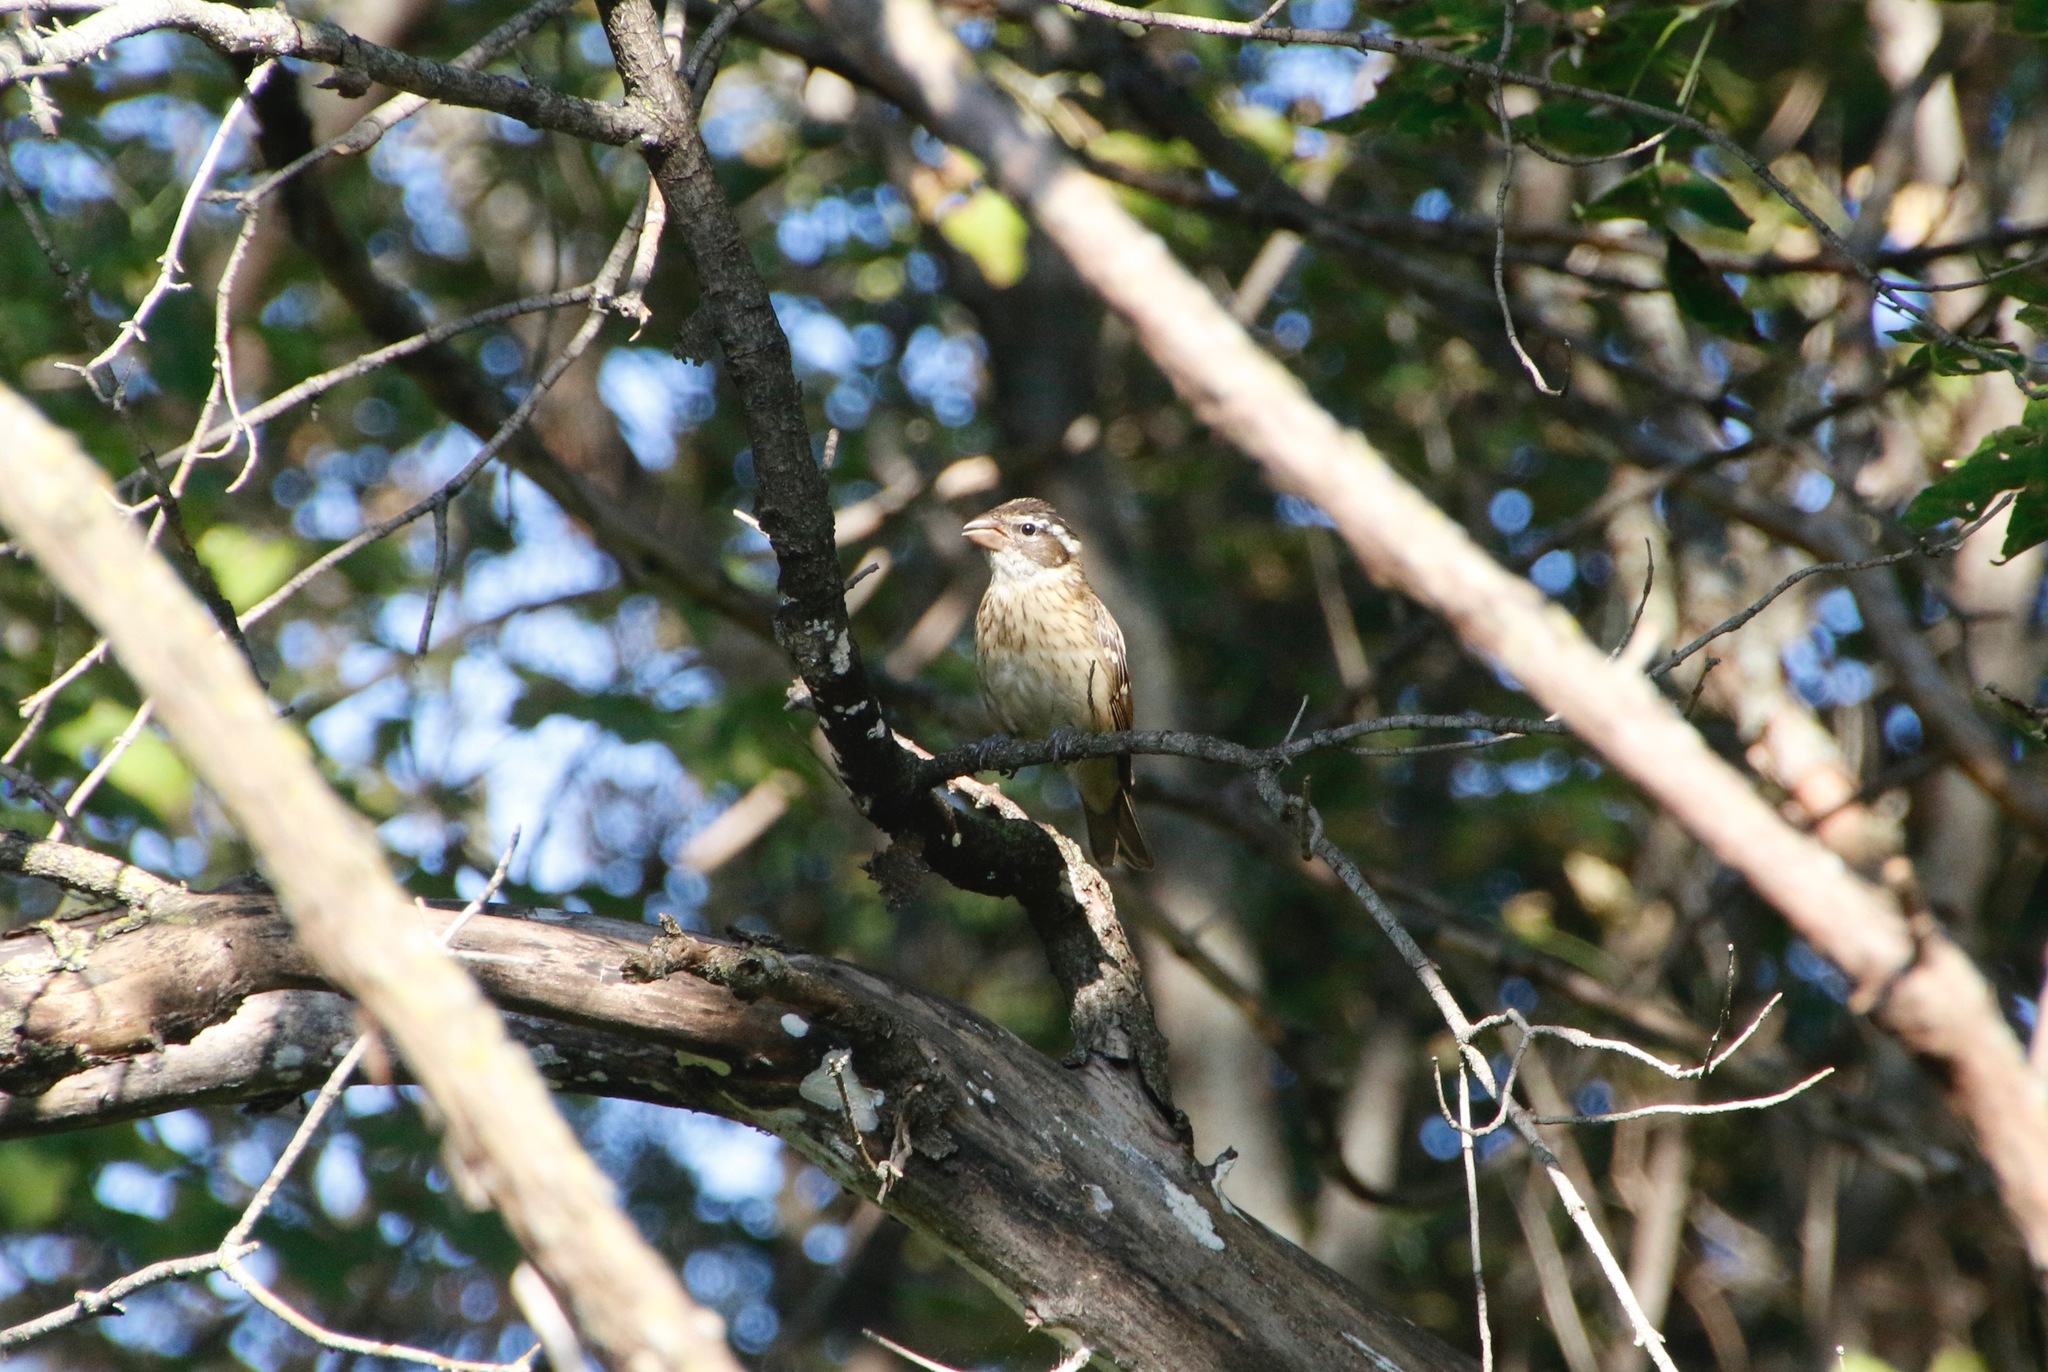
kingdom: Animalia
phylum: Chordata
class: Aves
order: Passeriformes
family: Cardinalidae
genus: Pheucticus
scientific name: Pheucticus ludovicianus
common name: Rose-breasted grosbeak
